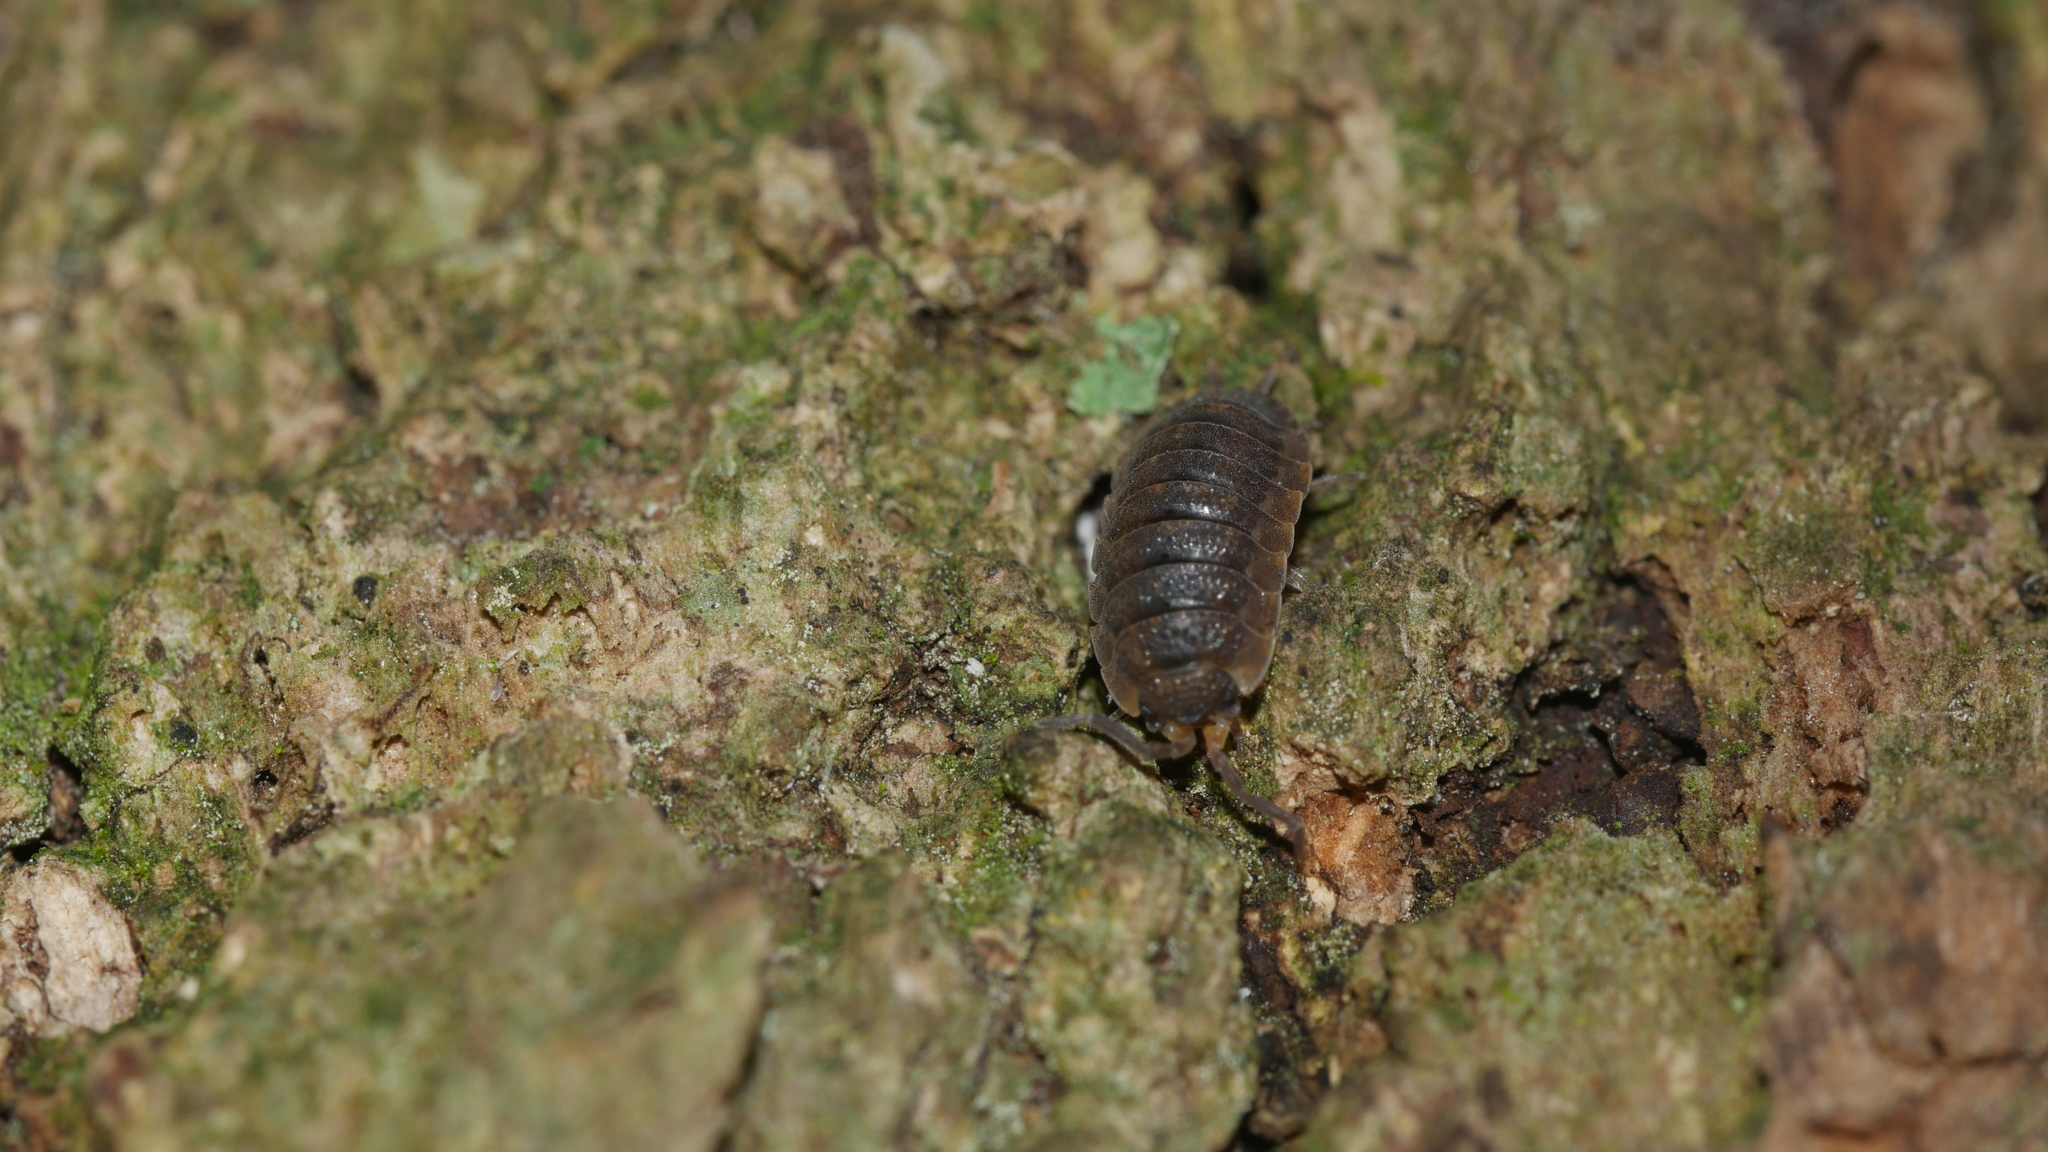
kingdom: Animalia
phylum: Arthropoda
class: Malacostraca
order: Isopoda
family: Porcellionidae
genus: Porcellio
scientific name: Porcellio scaber
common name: Common rough woodlouse
